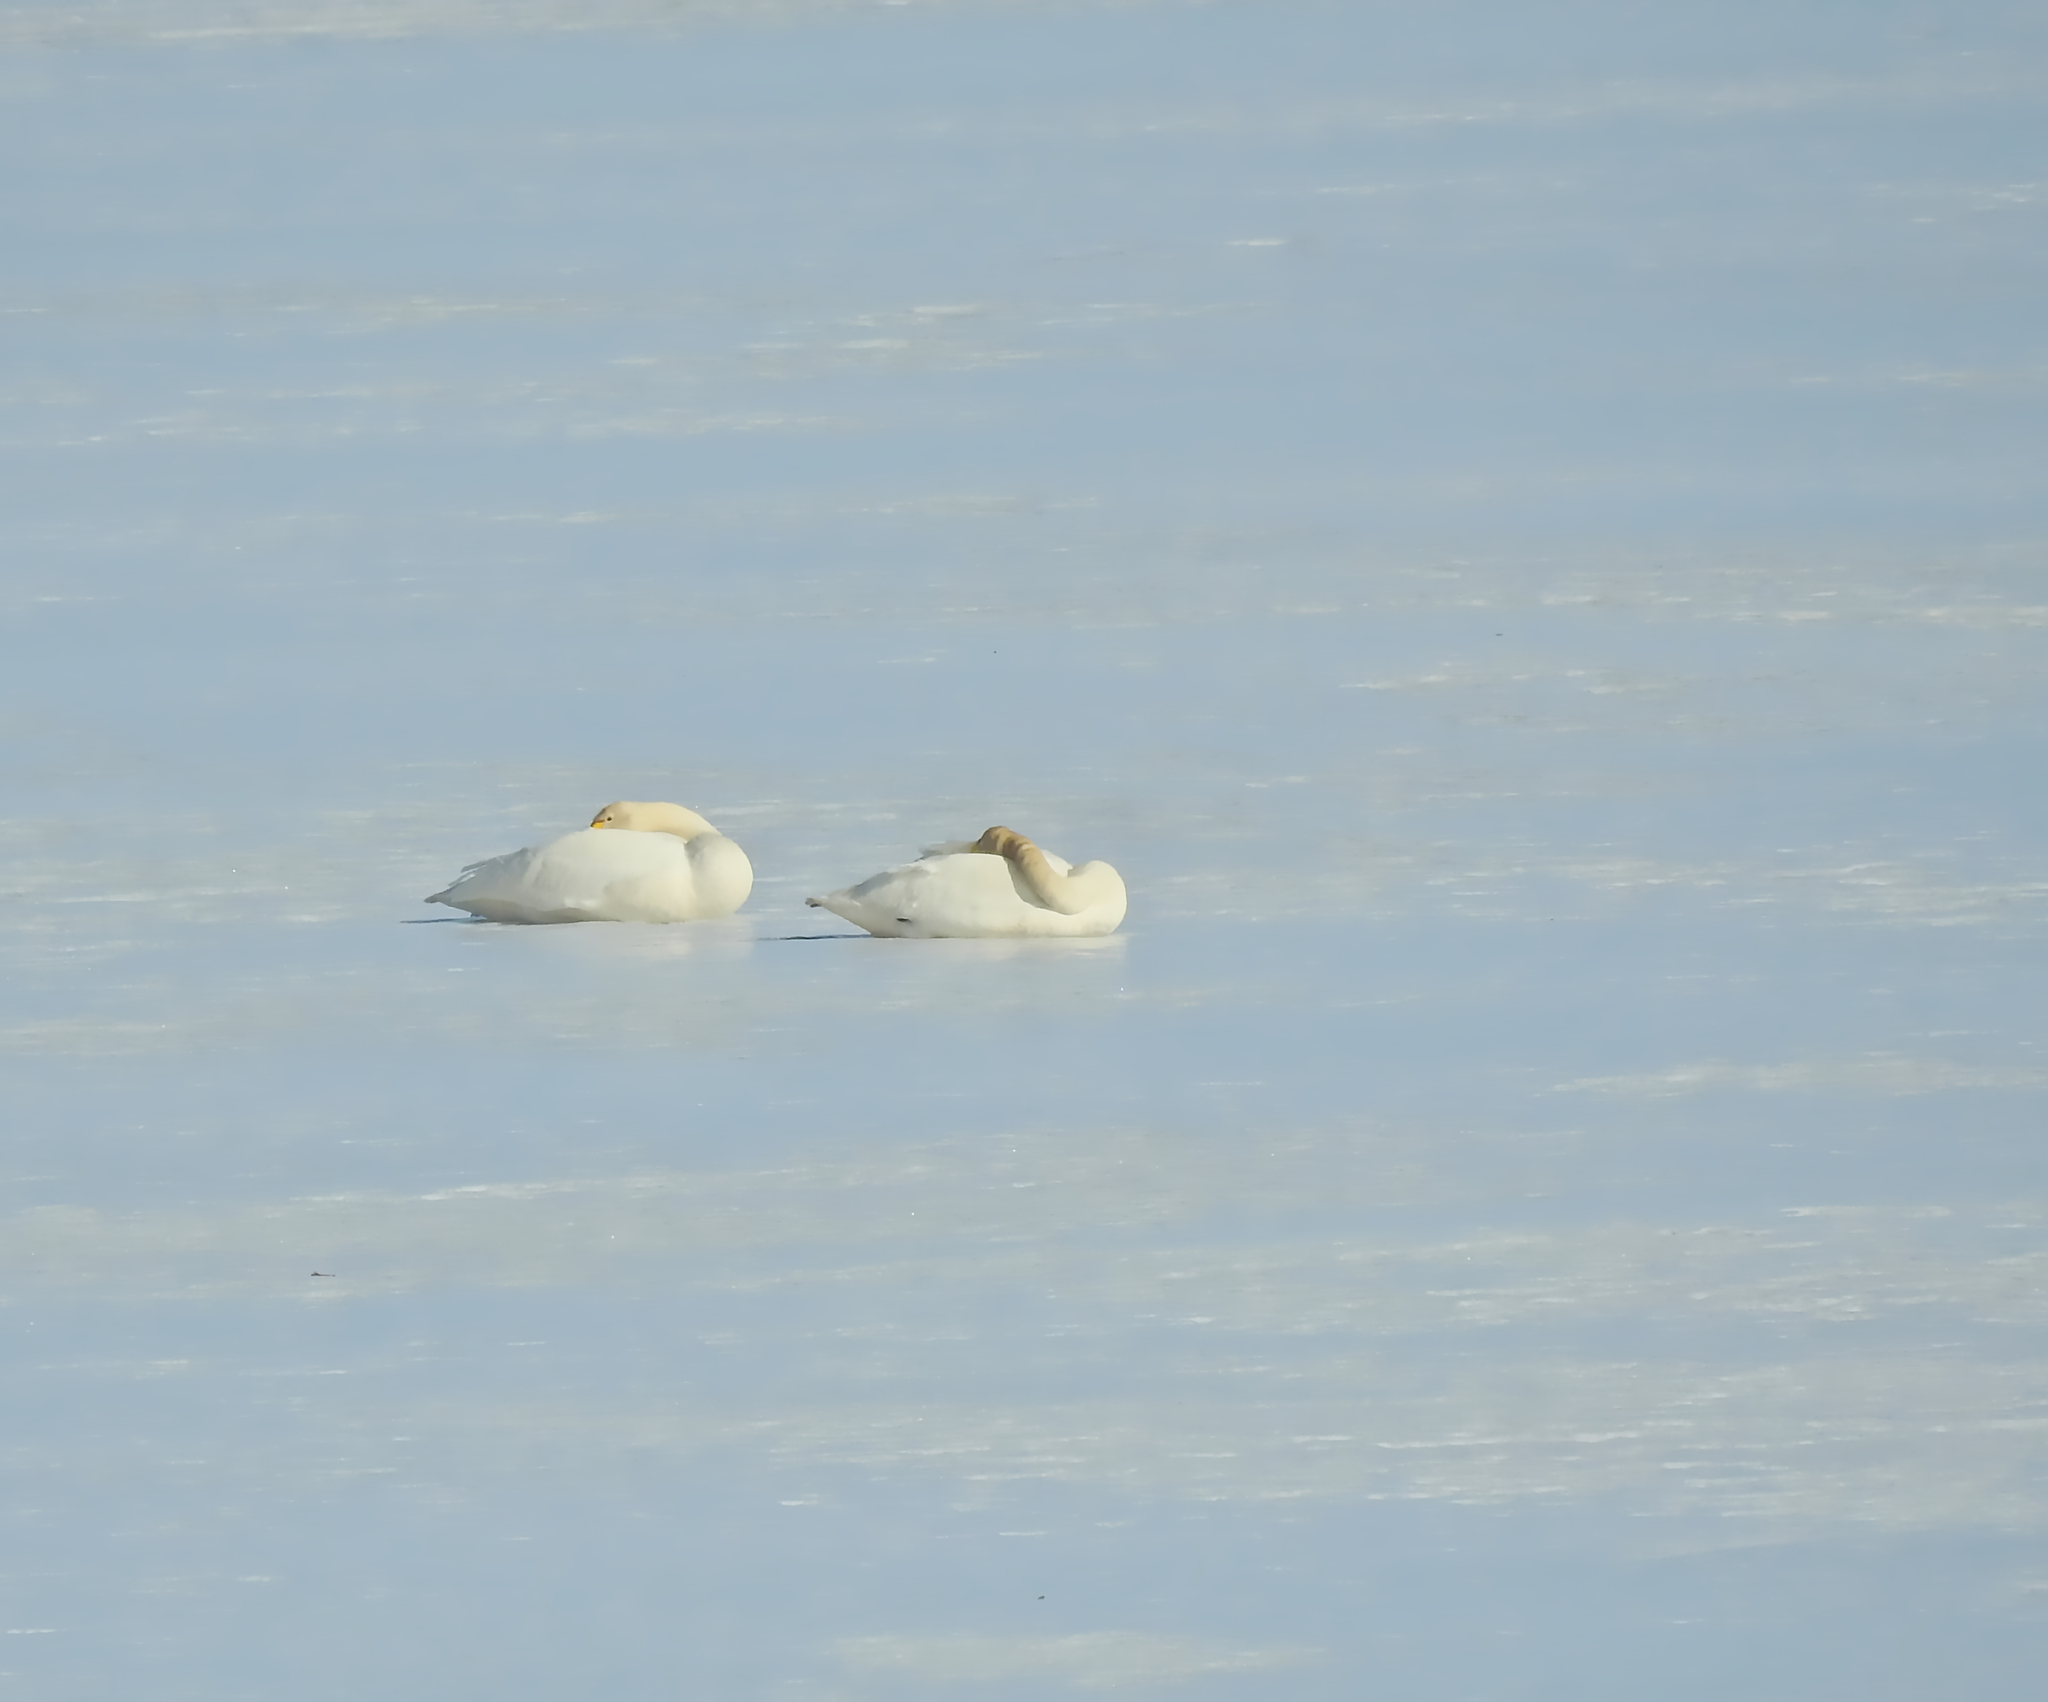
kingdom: Animalia
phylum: Chordata
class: Aves
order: Anseriformes
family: Anatidae
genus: Cygnus
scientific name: Cygnus cygnus
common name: Whooper swan
